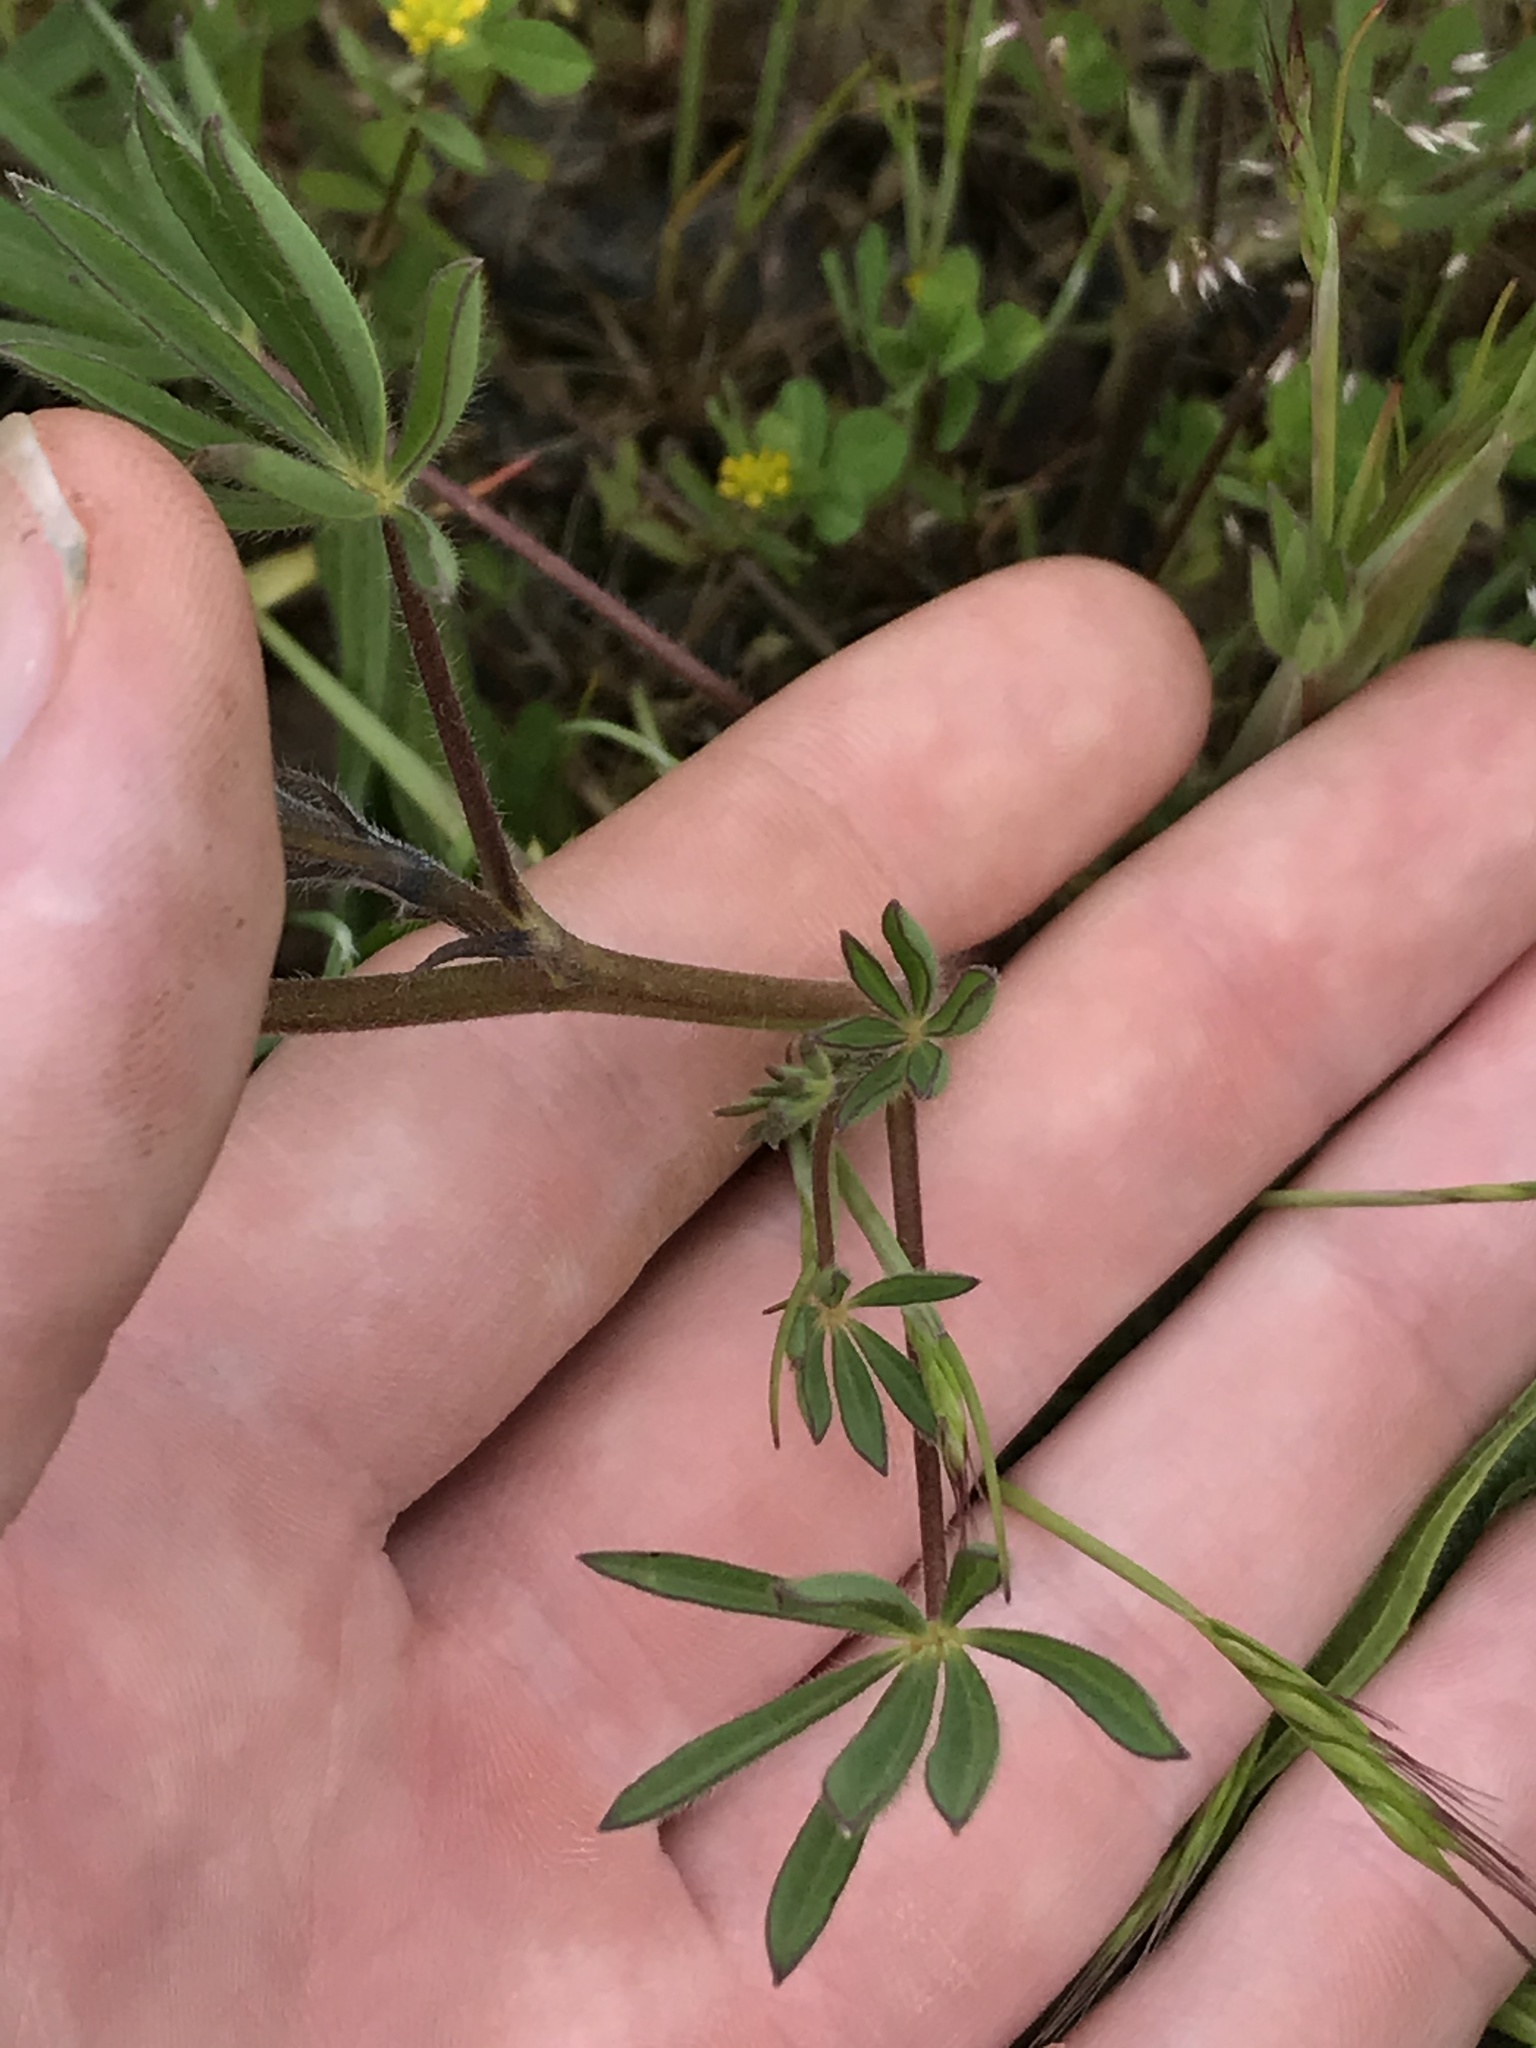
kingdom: Plantae
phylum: Tracheophyta
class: Magnoliopsida
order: Fabales
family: Fabaceae
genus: Lupinus
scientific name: Lupinus bicolor
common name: Miniature lupine
